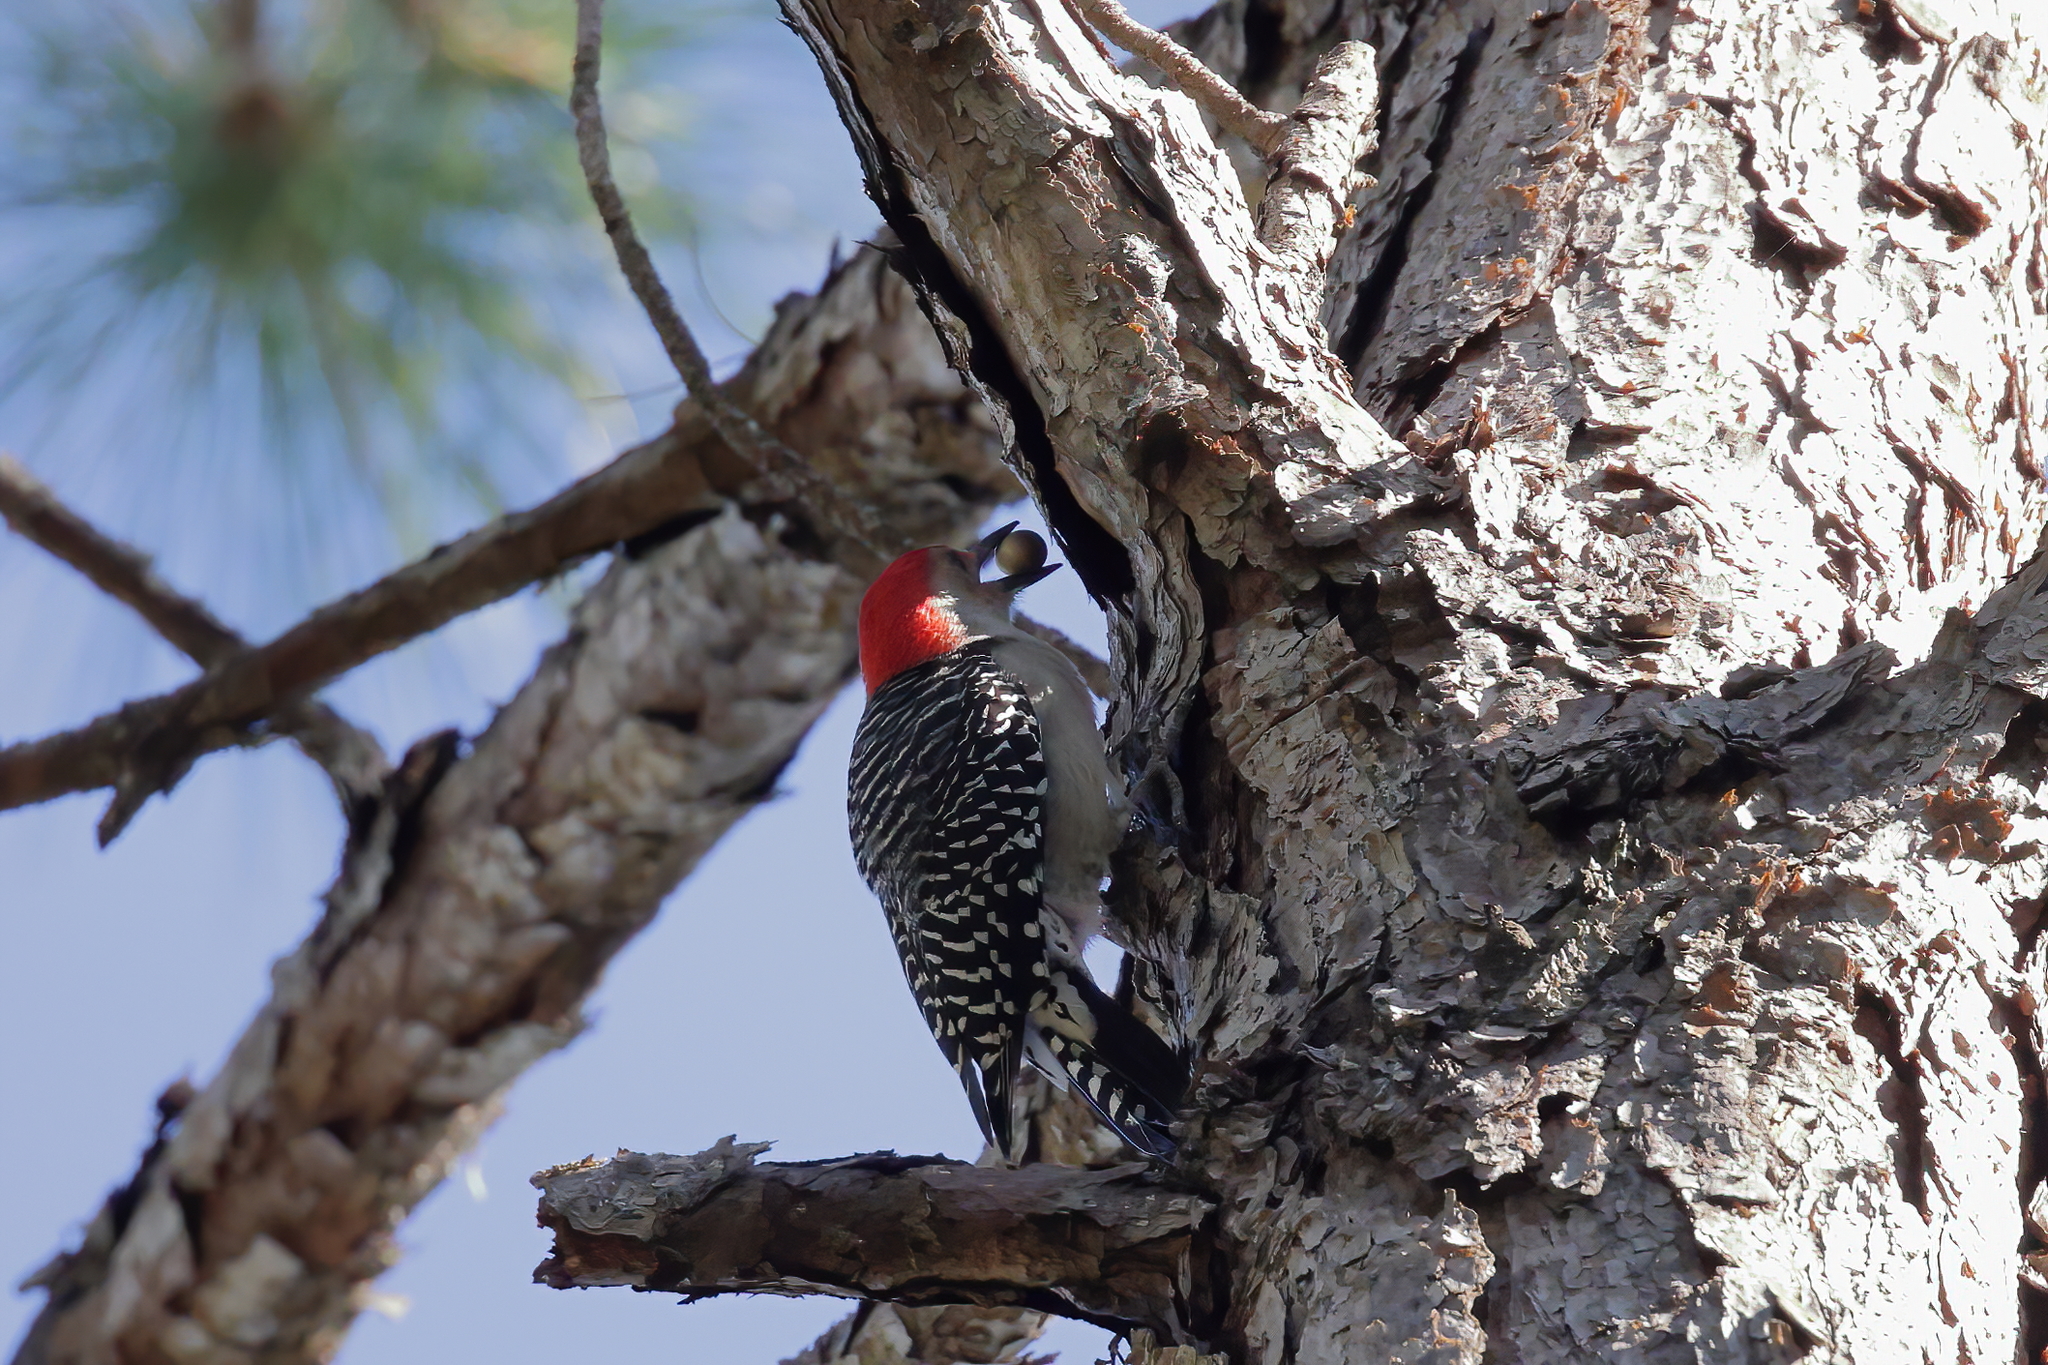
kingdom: Animalia
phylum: Chordata
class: Aves
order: Piciformes
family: Picidae
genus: Melanerpes
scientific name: Melanerpes carolinus
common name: Red-bellied woodpecker
